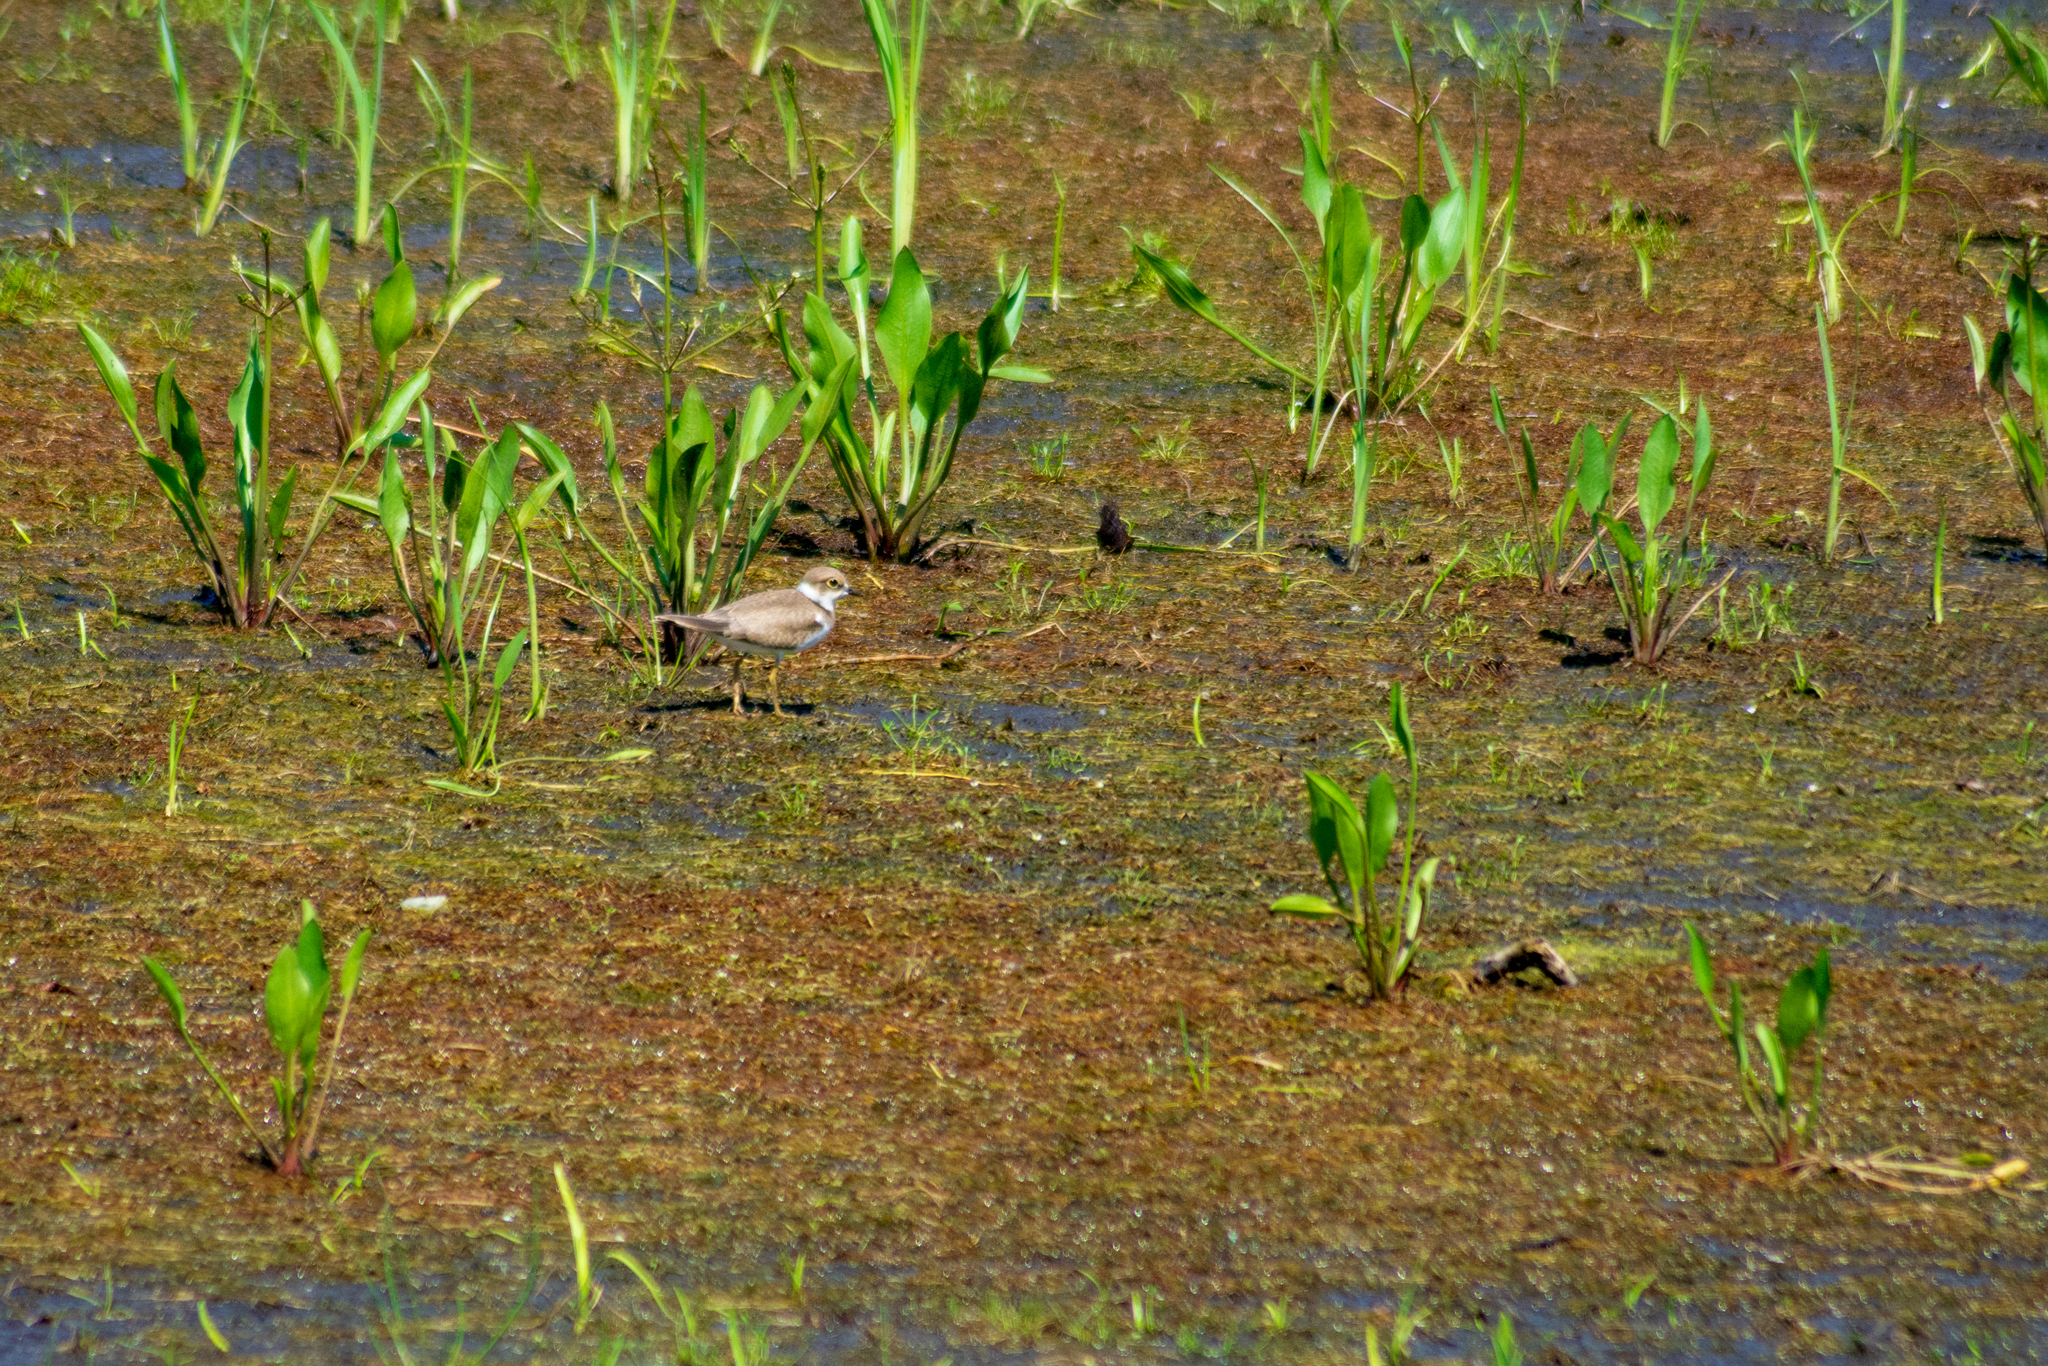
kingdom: Animalia
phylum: Chordata
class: Aves
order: Charadriiformes
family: Charadriidae
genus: Charadrius
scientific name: Charadrius dubius
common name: Little ringed plover
